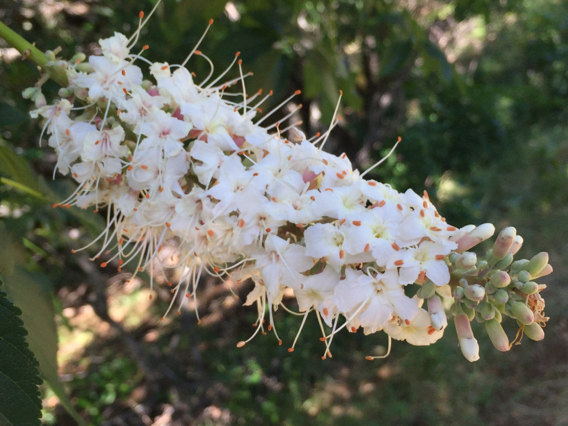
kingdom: Plantae
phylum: Tracheophyta
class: Magnoliopsida
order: Sapindales
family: Sapindaceae
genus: Aesculus
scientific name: Aesculus californica
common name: California buckeye
